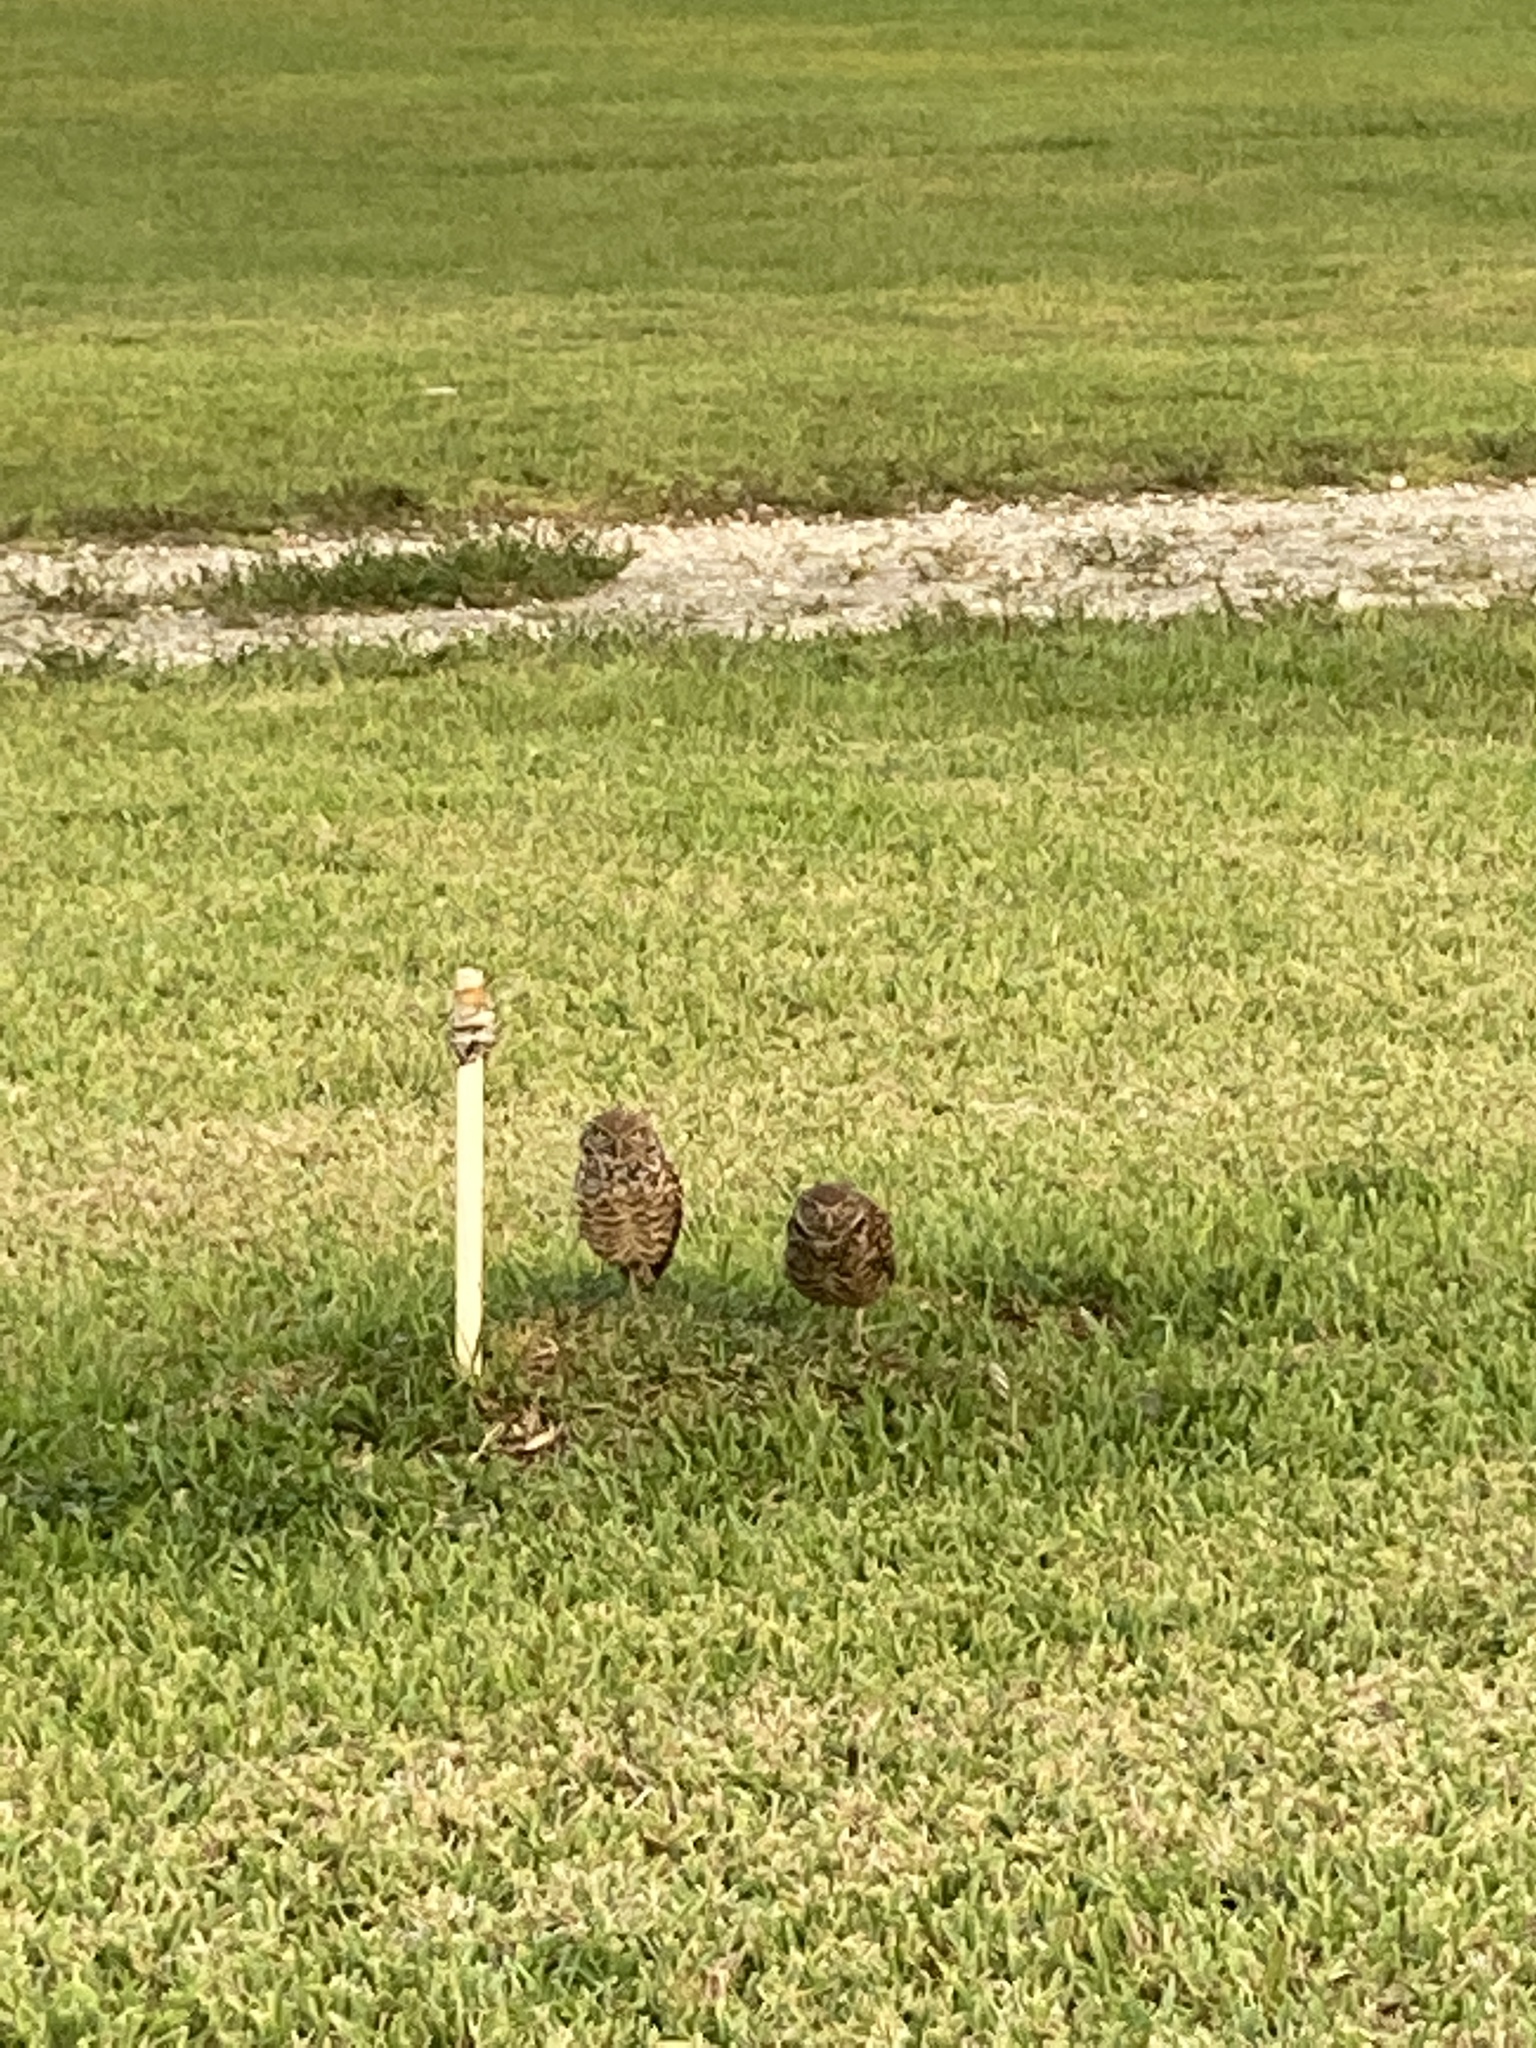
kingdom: Animalia
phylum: Chordata
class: Aves
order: Strigiformes
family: Strigidae
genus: Athene
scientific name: Athene cunicularia
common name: Burrowing owl
